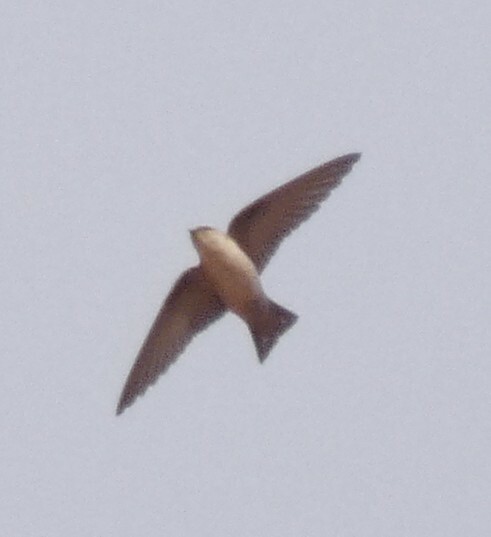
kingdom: Animalia
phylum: Chordata
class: Aves
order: Passeriformes
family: Hirundinidae
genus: Ptyonoprogne
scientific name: Ptyonoprogne fuligula
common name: Rock martin
